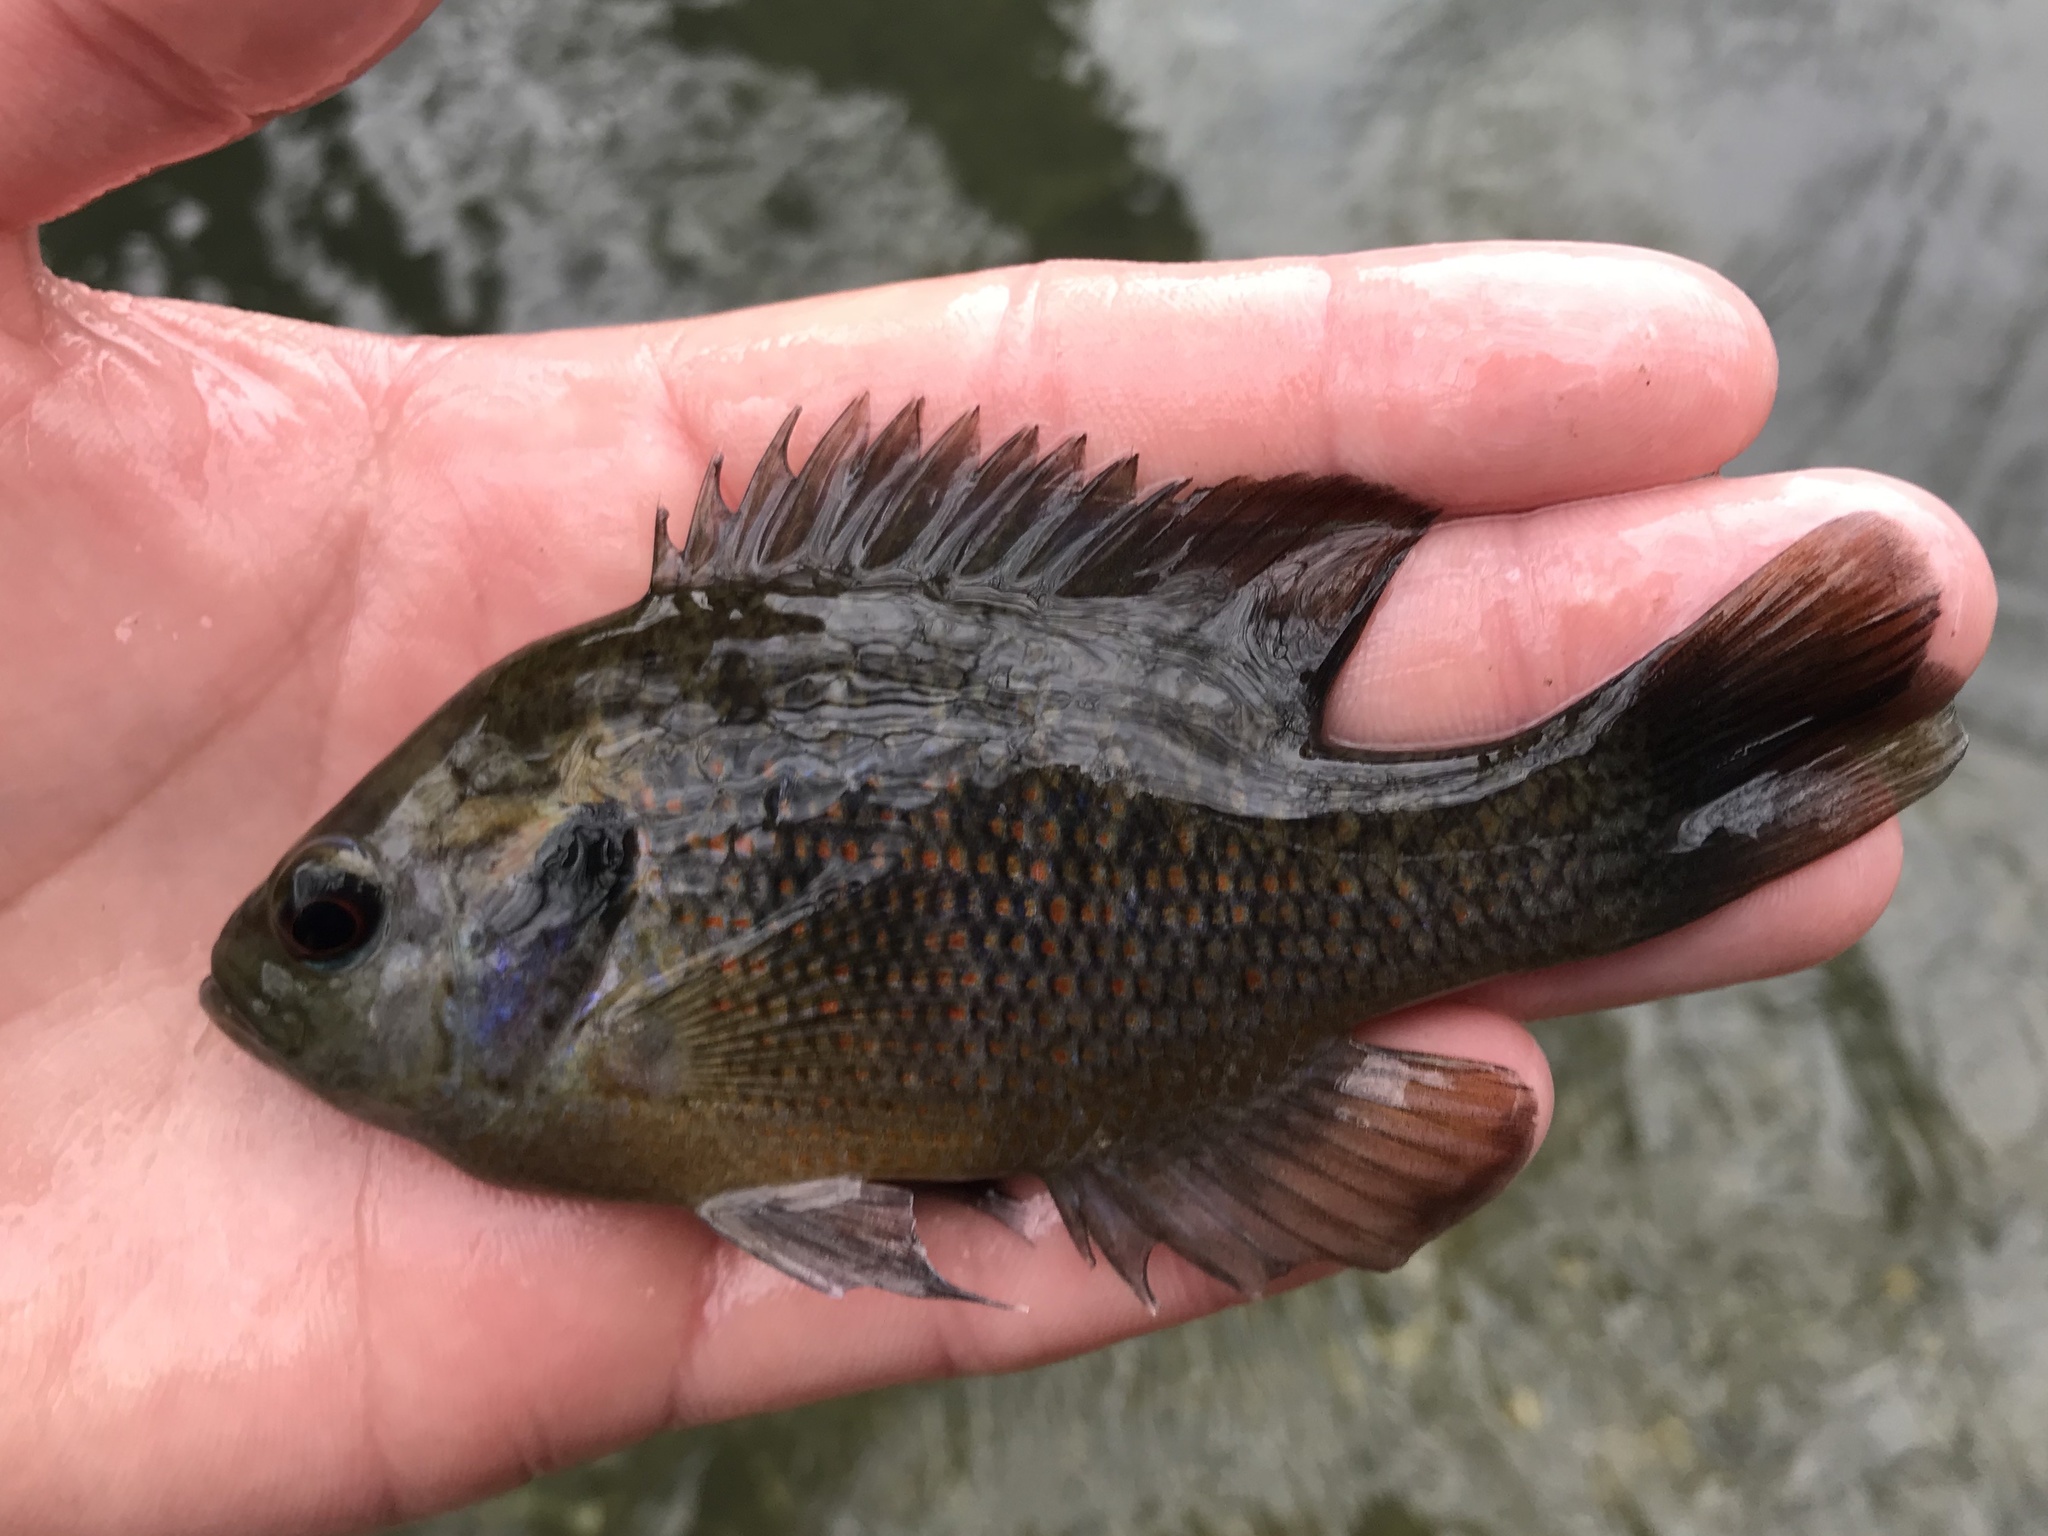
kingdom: Animalia
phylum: Chordata
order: Perciformes
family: Centrarchidae
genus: Lepomis
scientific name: Lepomis miniatus
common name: Redspotted sunfish
